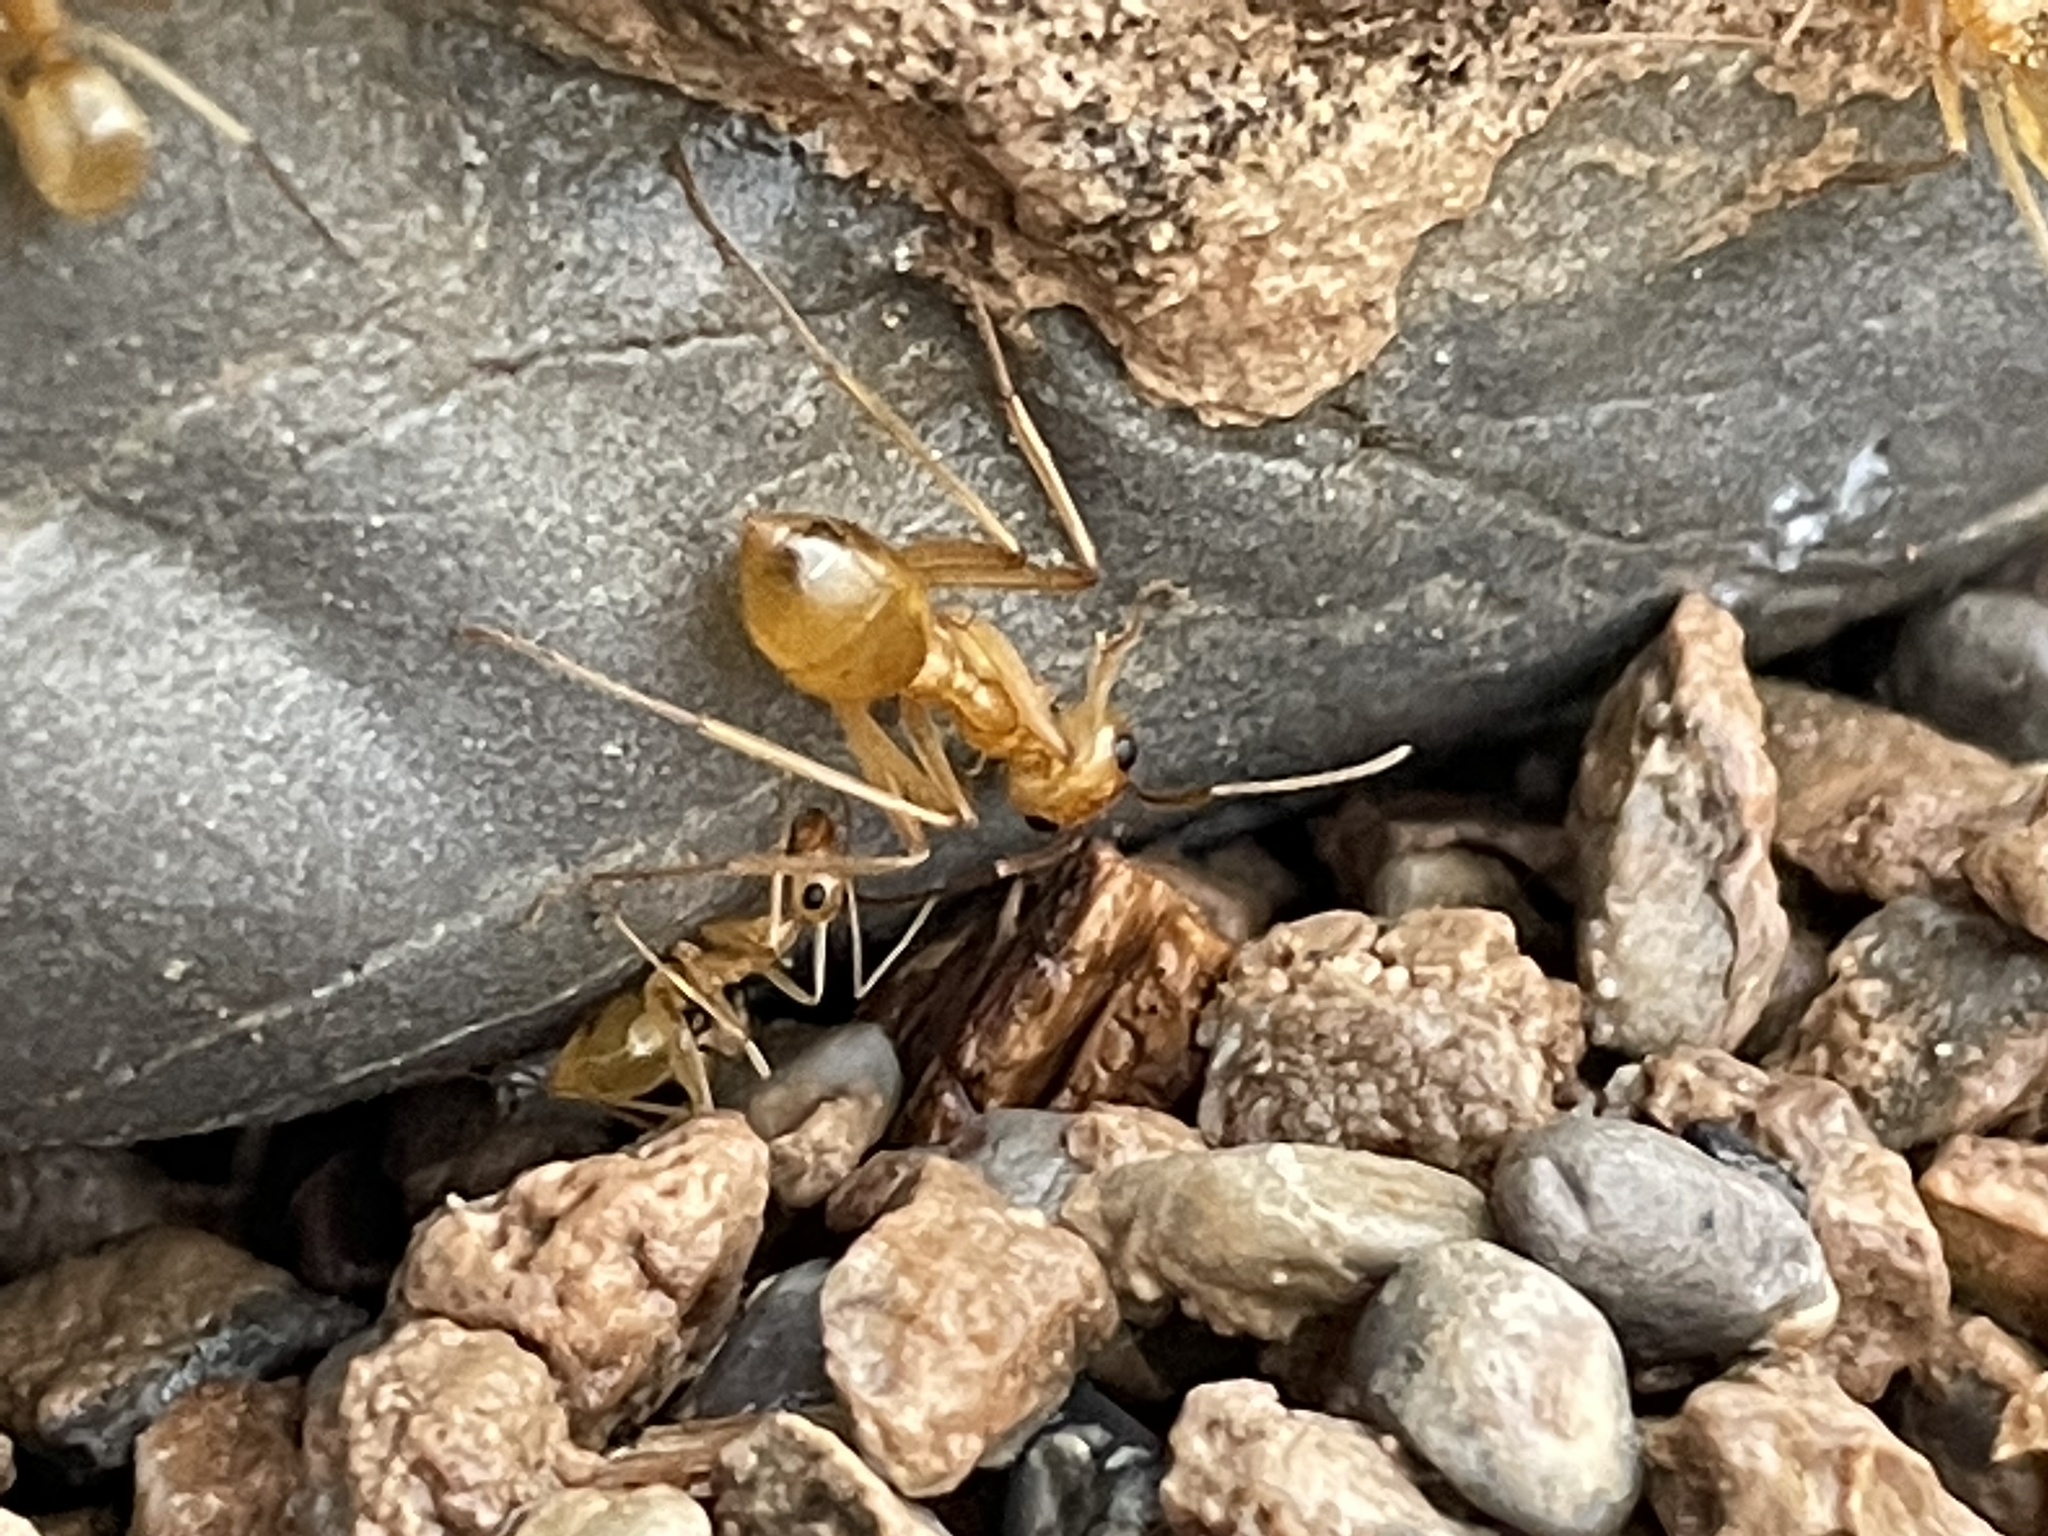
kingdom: Animalia
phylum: Arthropoda
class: Insecta
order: Hymenoptera
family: Formicidae
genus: Myrmecocystus
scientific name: Myrmecocystus mexicanus
